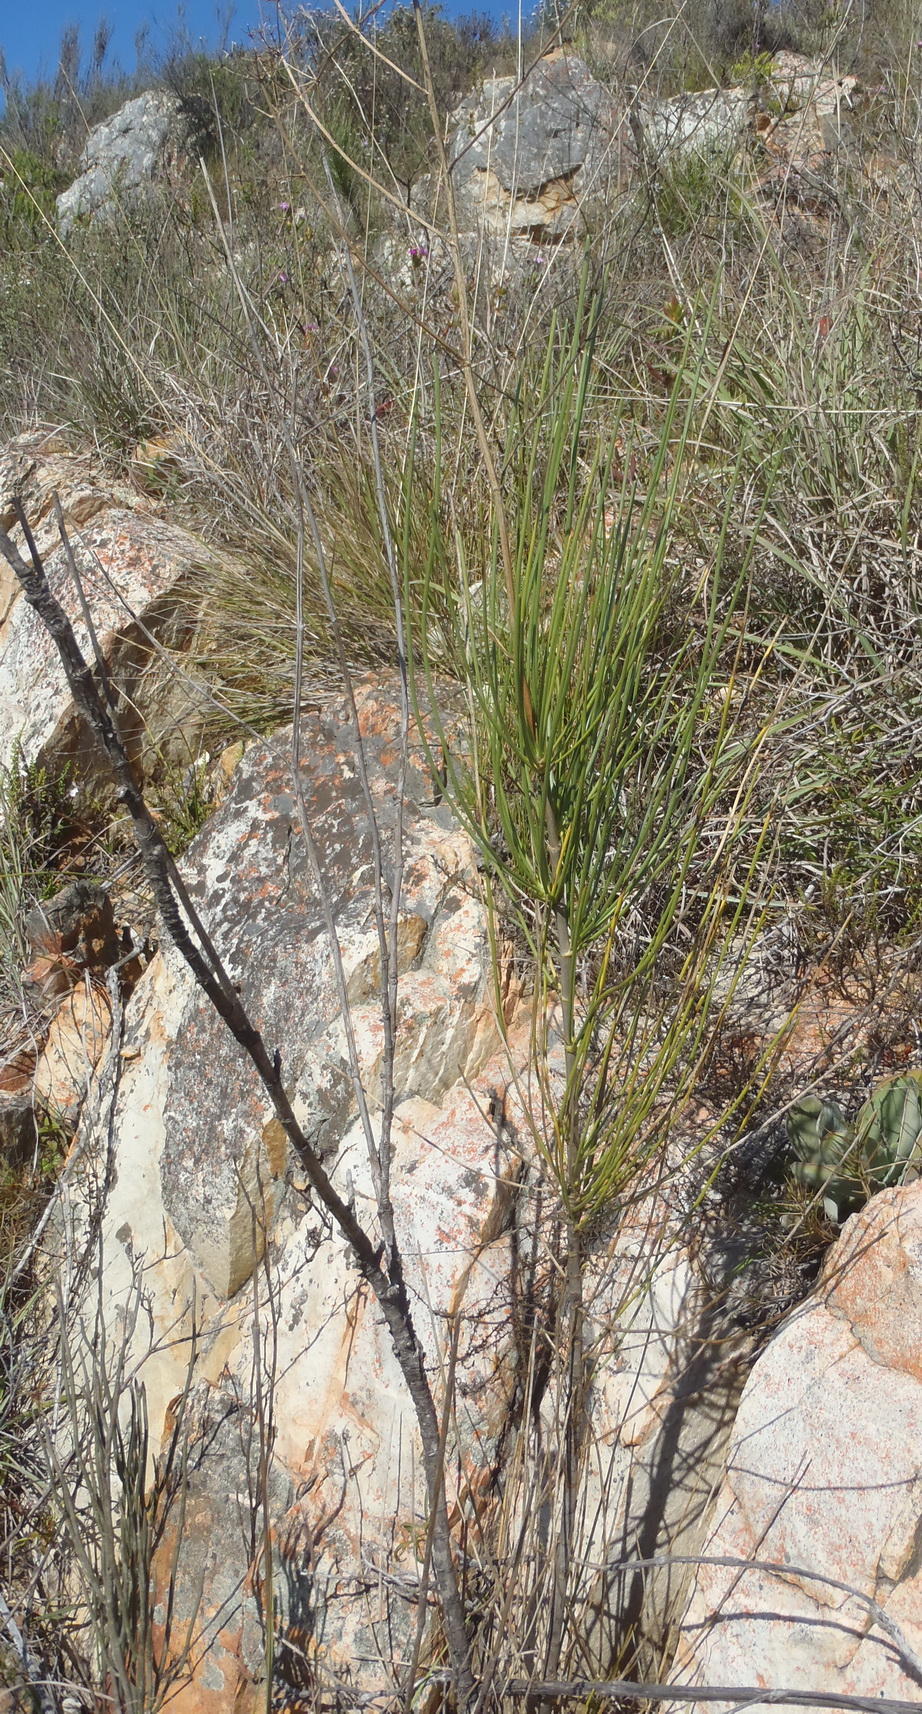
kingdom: Plantae
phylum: Tracheophyta
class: Magnoliopsida
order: Apiales
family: Apiaceae
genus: Anginon
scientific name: Anginon difforme
